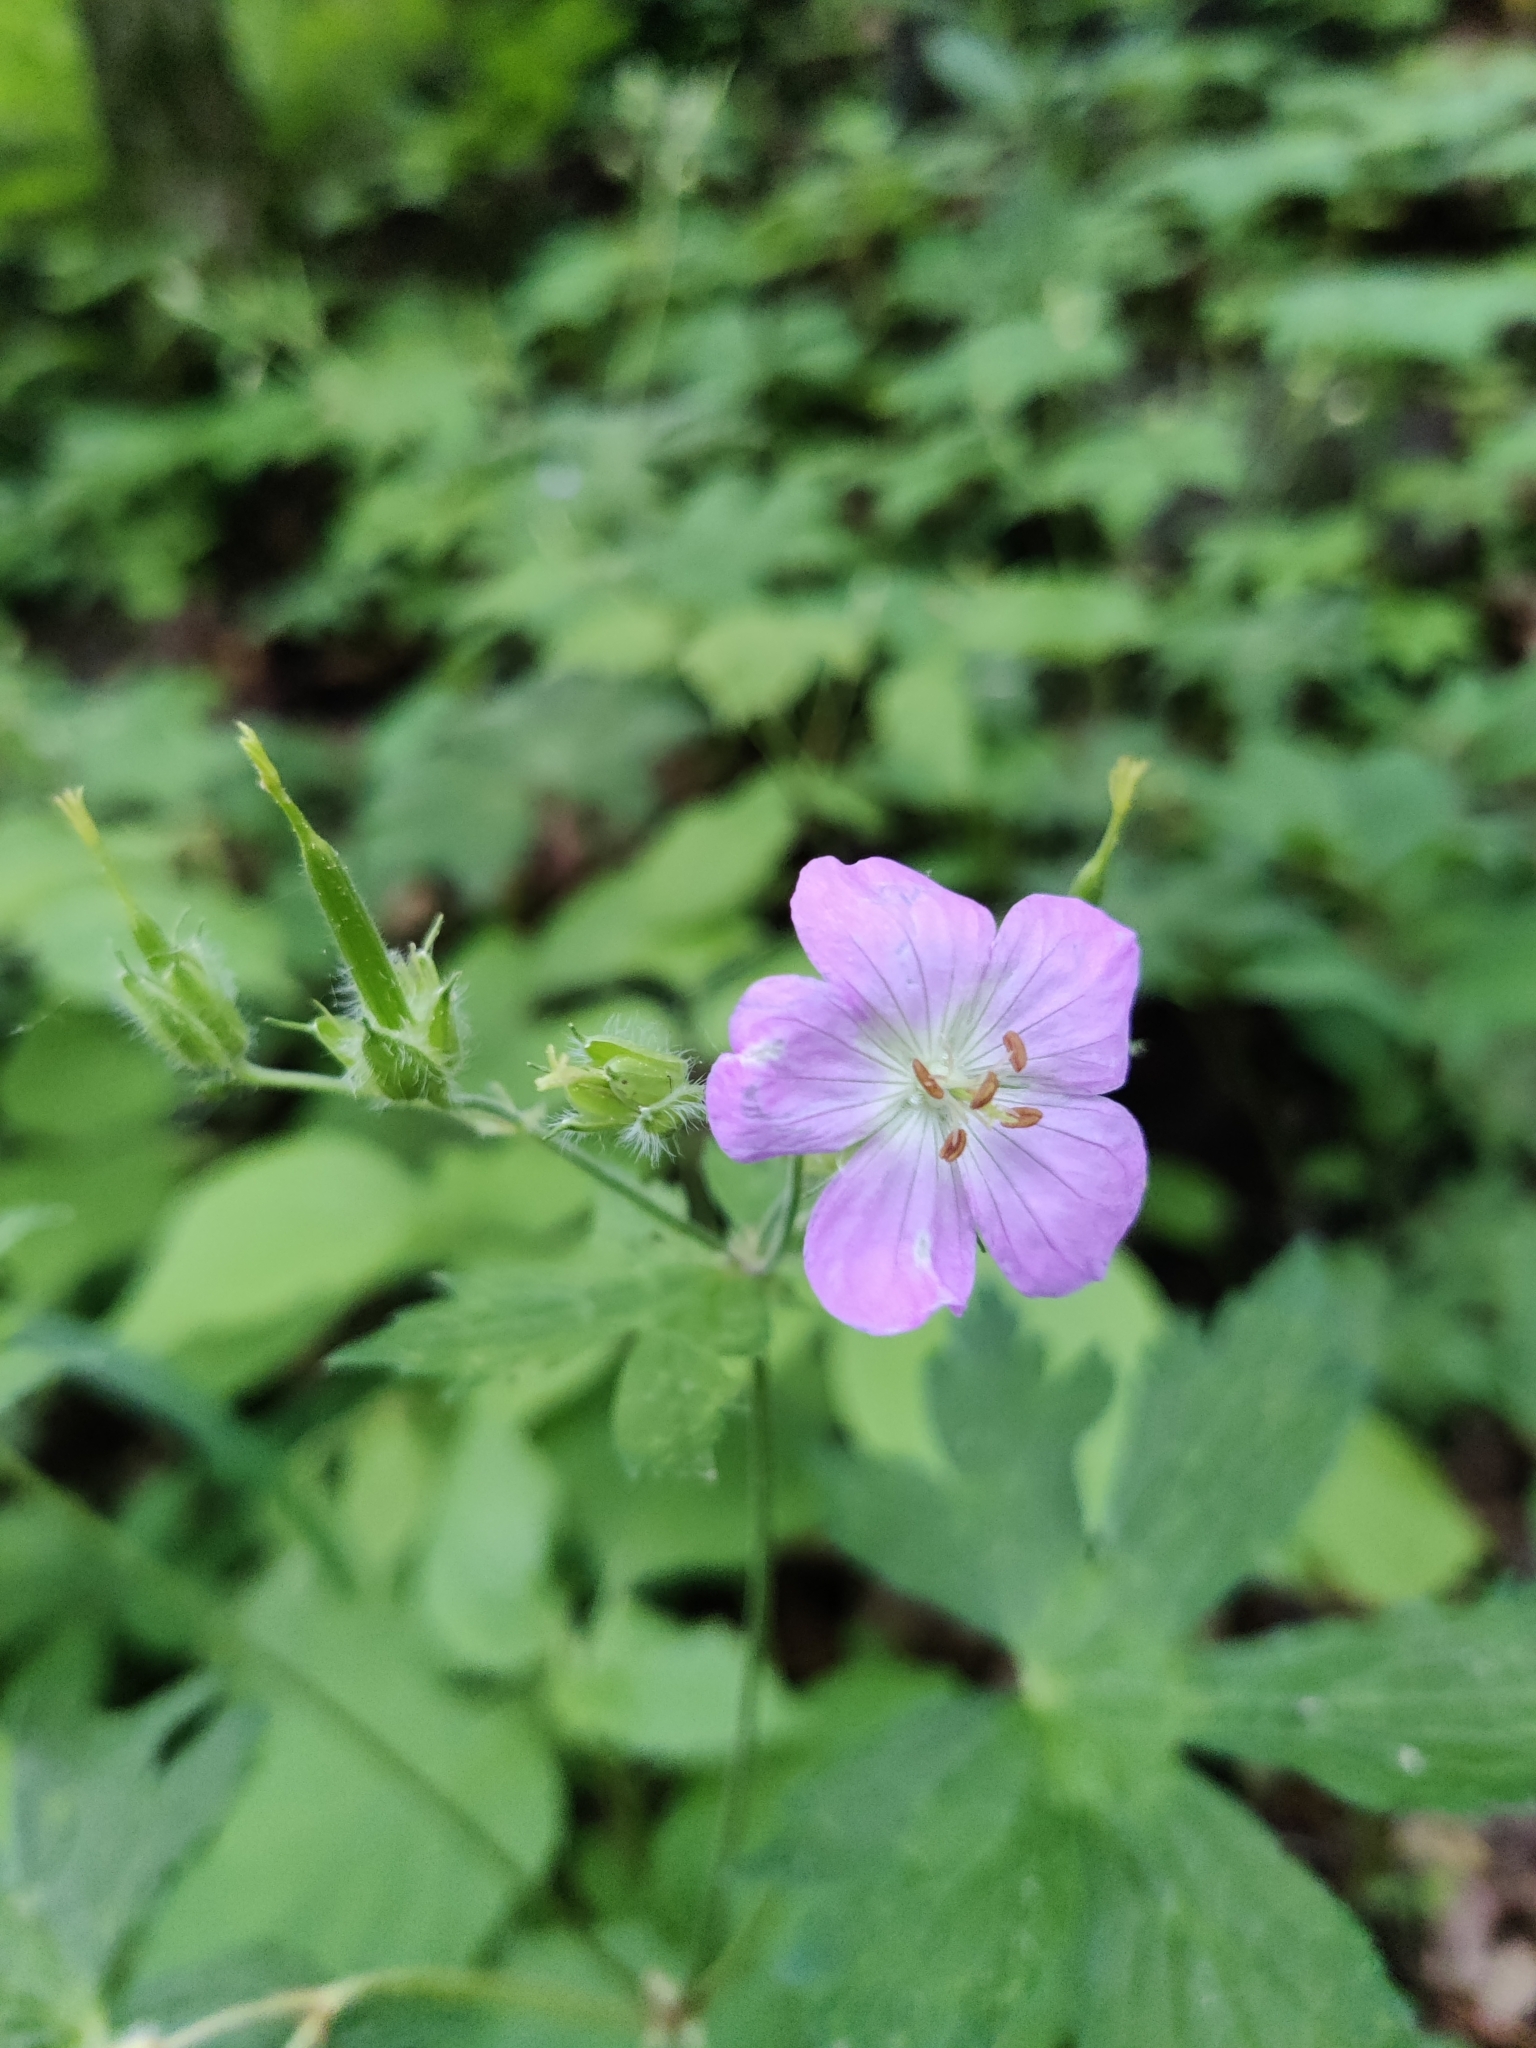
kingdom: Plantae
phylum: Tracheophyta
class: Magnoliopsida
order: Geraniales
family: Geraniaceae
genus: Geranium
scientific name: Geranium maculatum
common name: Spotted geranium
